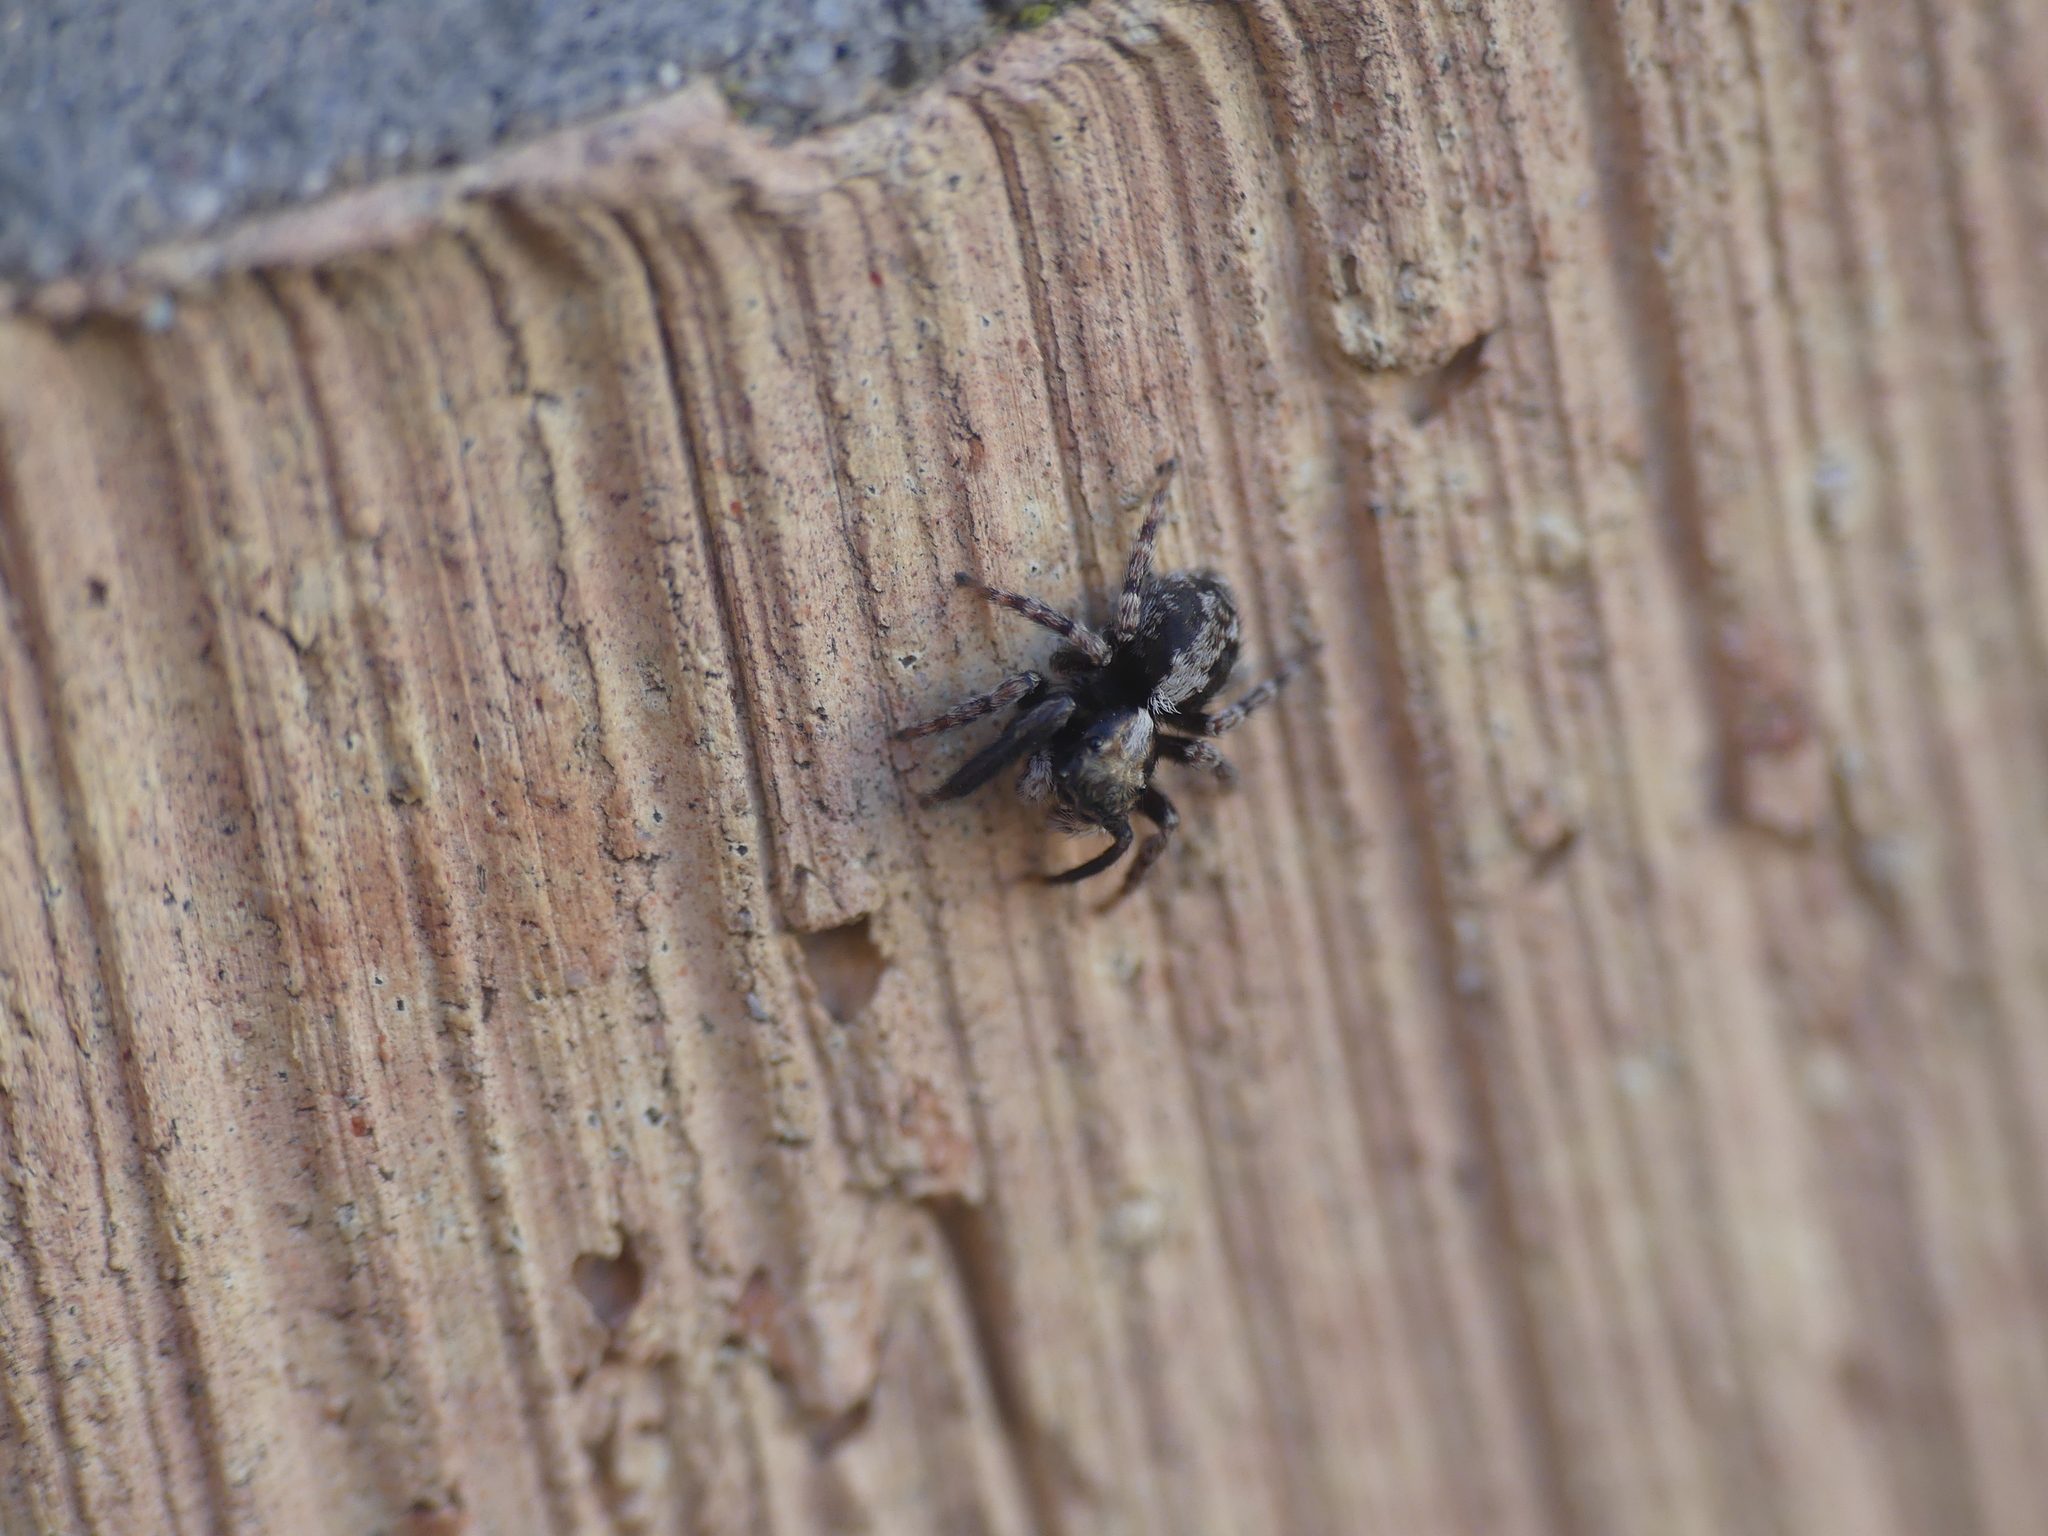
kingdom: Animalia
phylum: Arthropoda
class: Arachnida
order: Araneae
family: Salticidae
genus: Pseudeuophrys
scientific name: Pseudeuophrys lanigera
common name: Jumping spider
